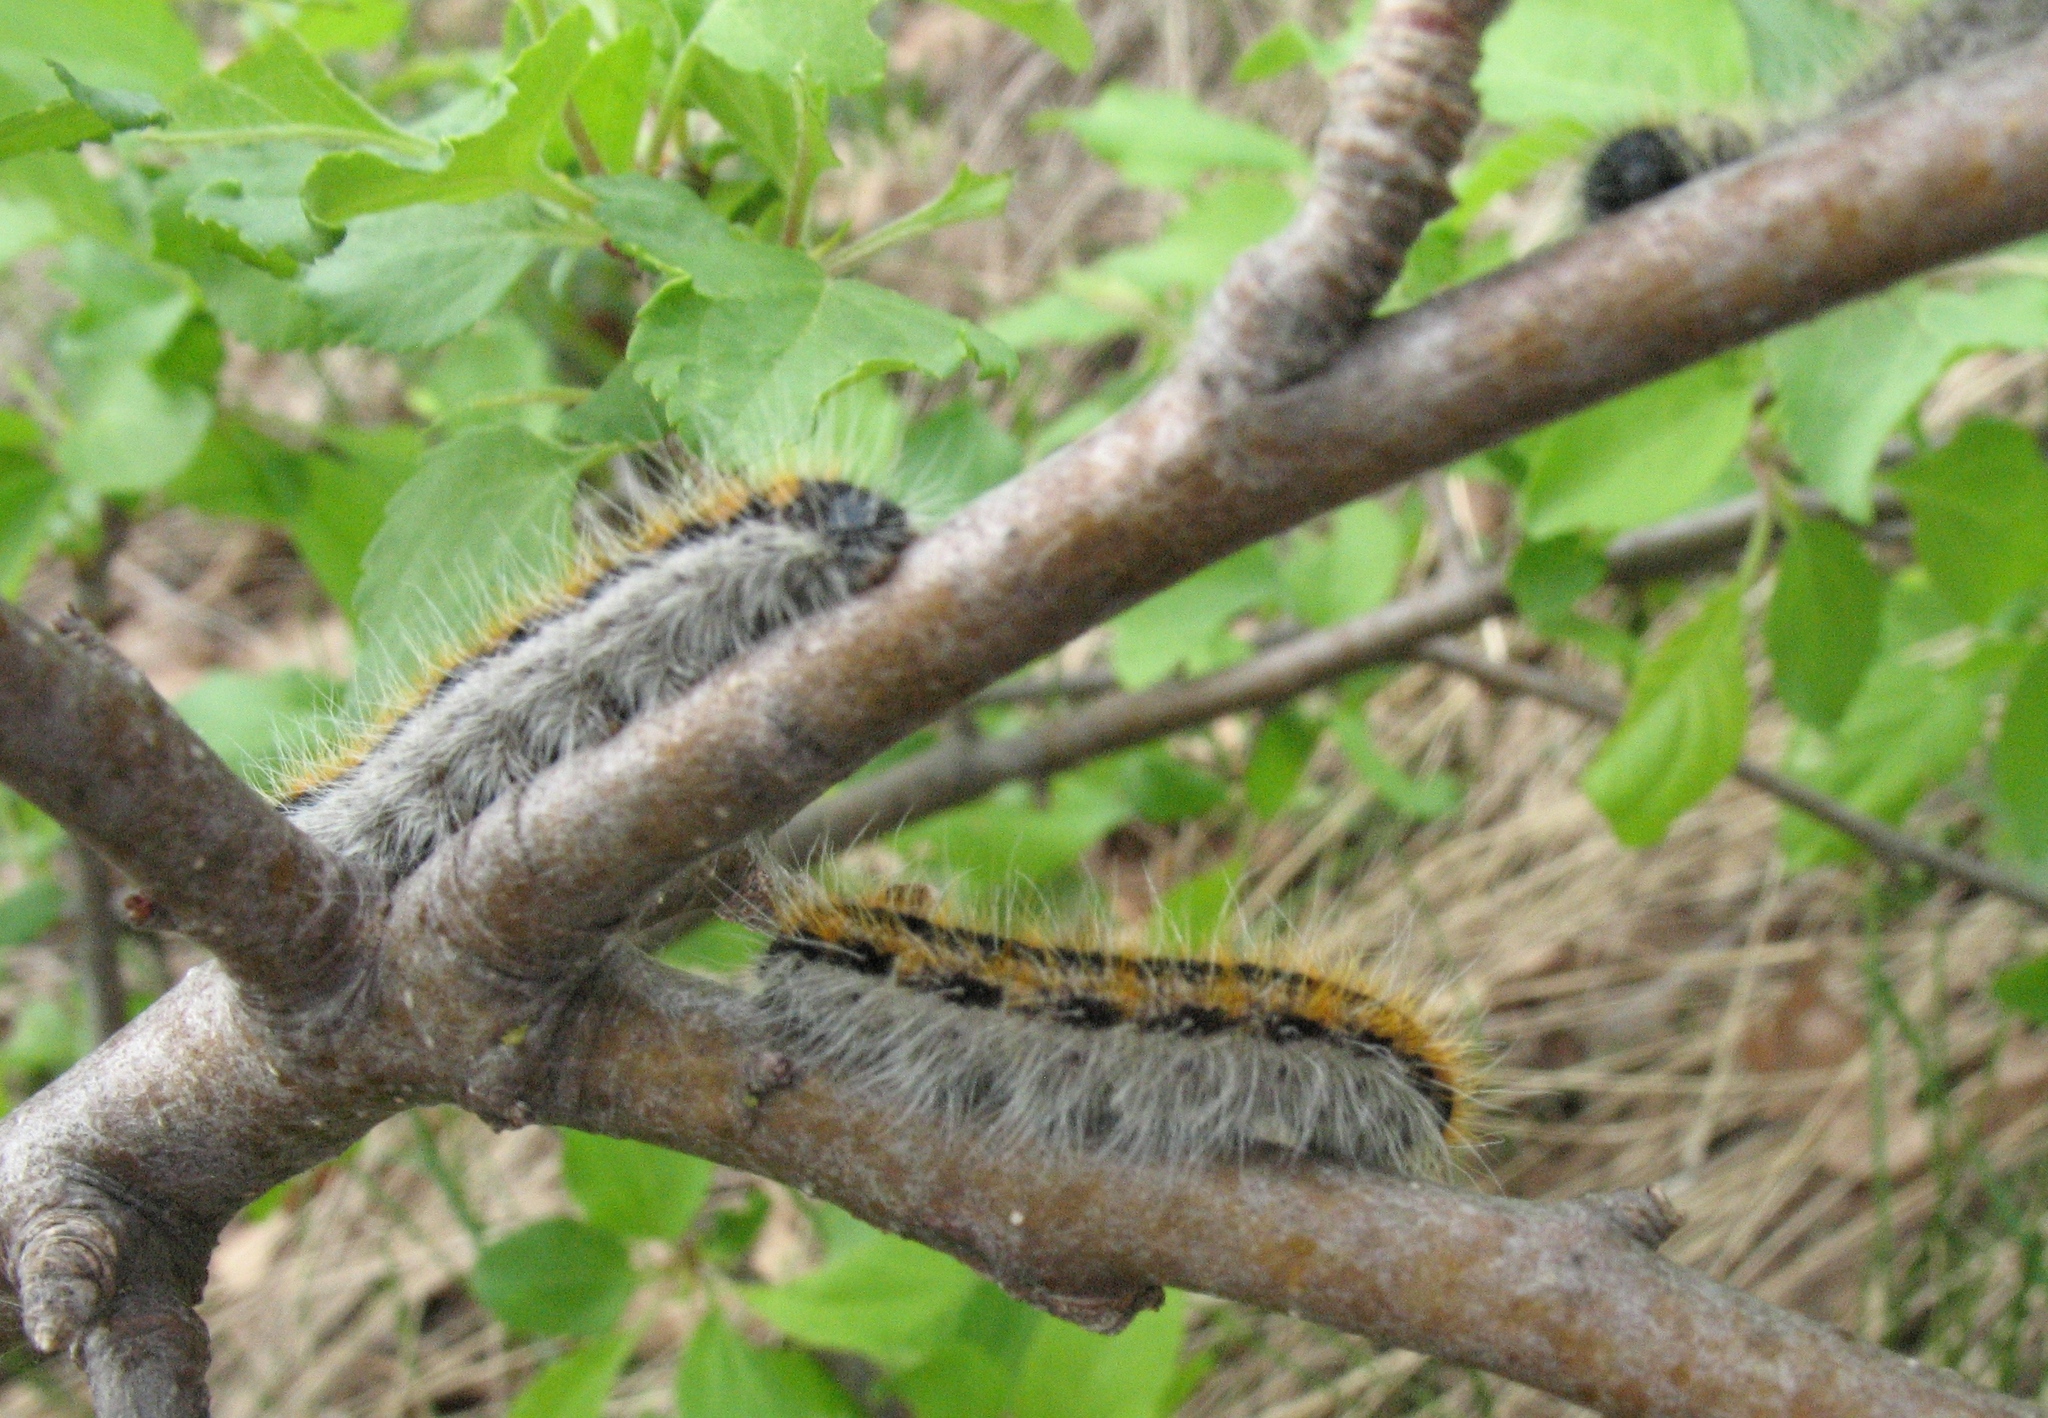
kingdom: Animalia
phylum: Arthropoda
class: Insecta
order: Lepidoptera
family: Pieridae
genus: Aporia
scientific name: Aporia crataegi
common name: Black-veined white
